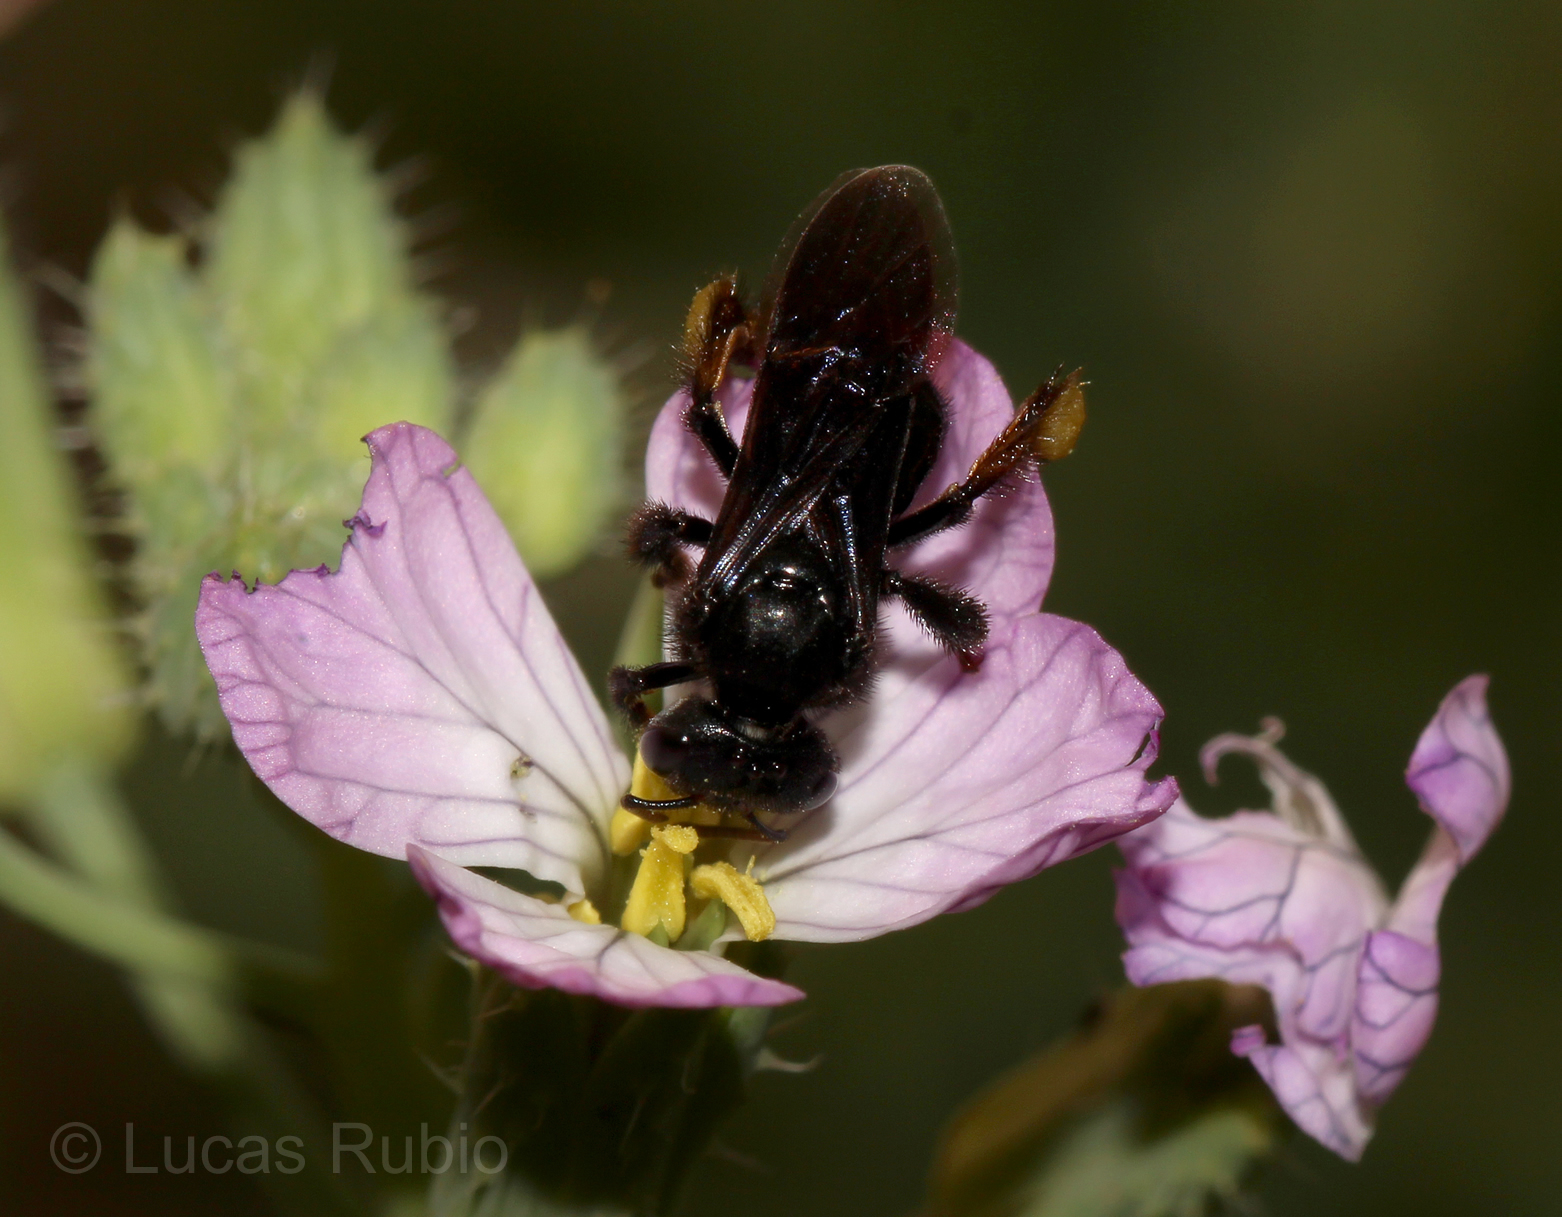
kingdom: Animalia
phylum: Arthropoda
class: Insecta
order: Hymenoptera
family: Apidae
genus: Trigona
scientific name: Trigona spinipes
